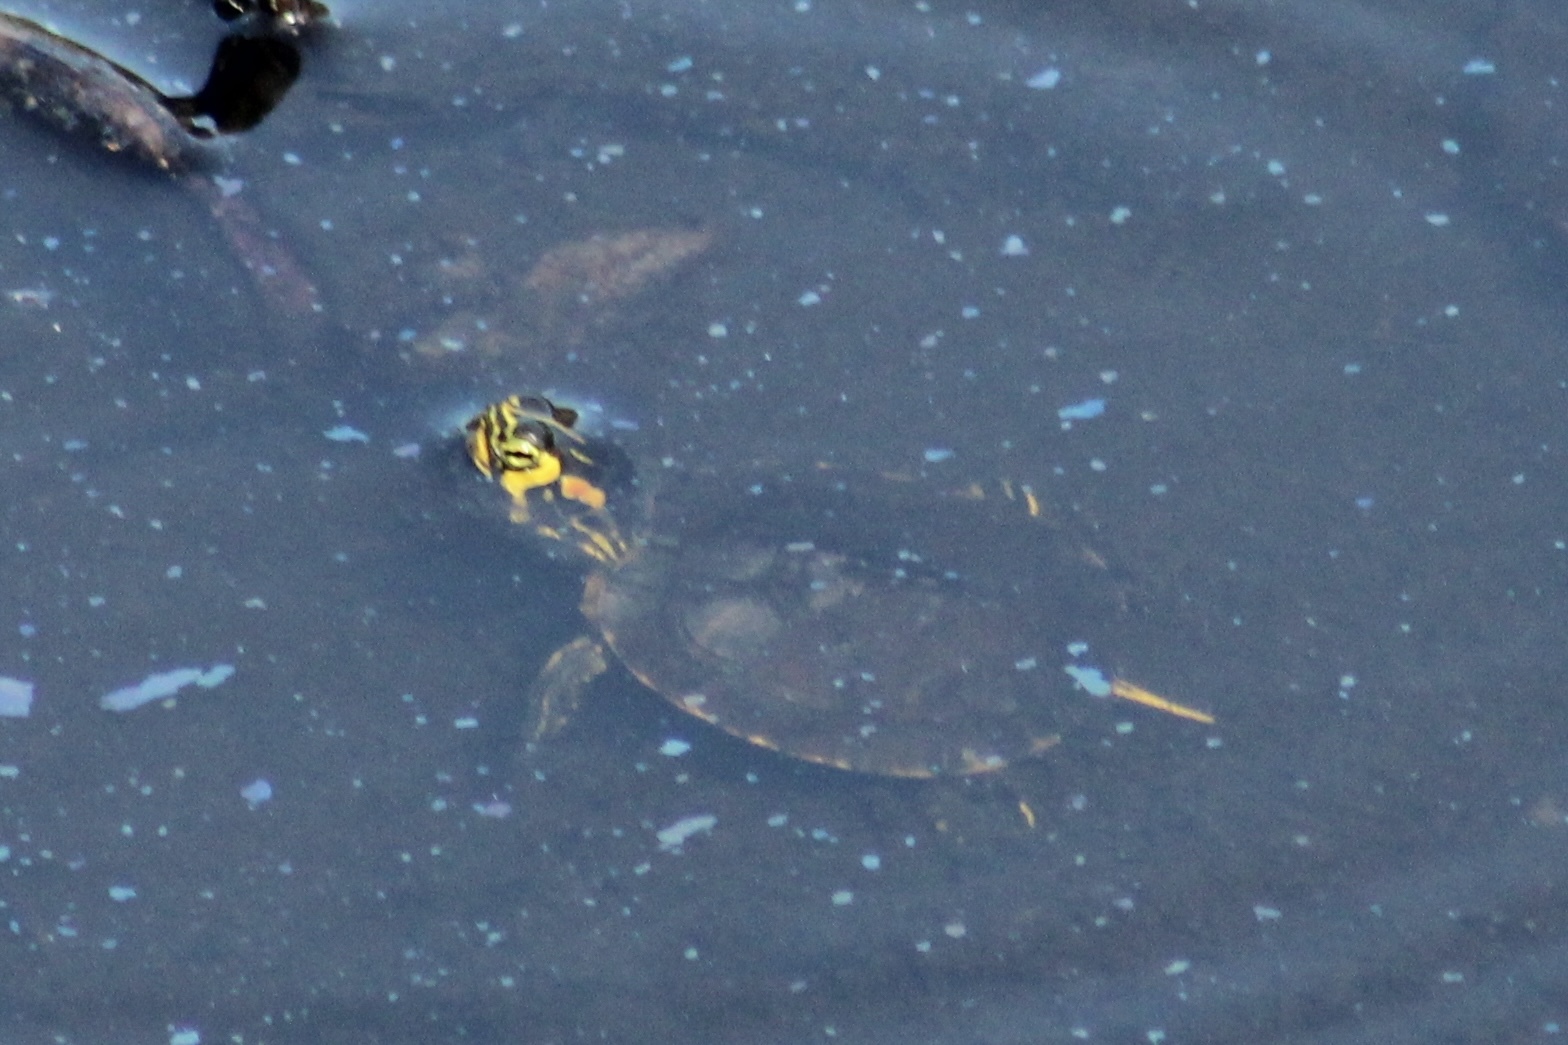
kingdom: Animalia
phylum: Chordata
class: Testudines
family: Emydidae
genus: Trachemys
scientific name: Trachemys scripta
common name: Slider
